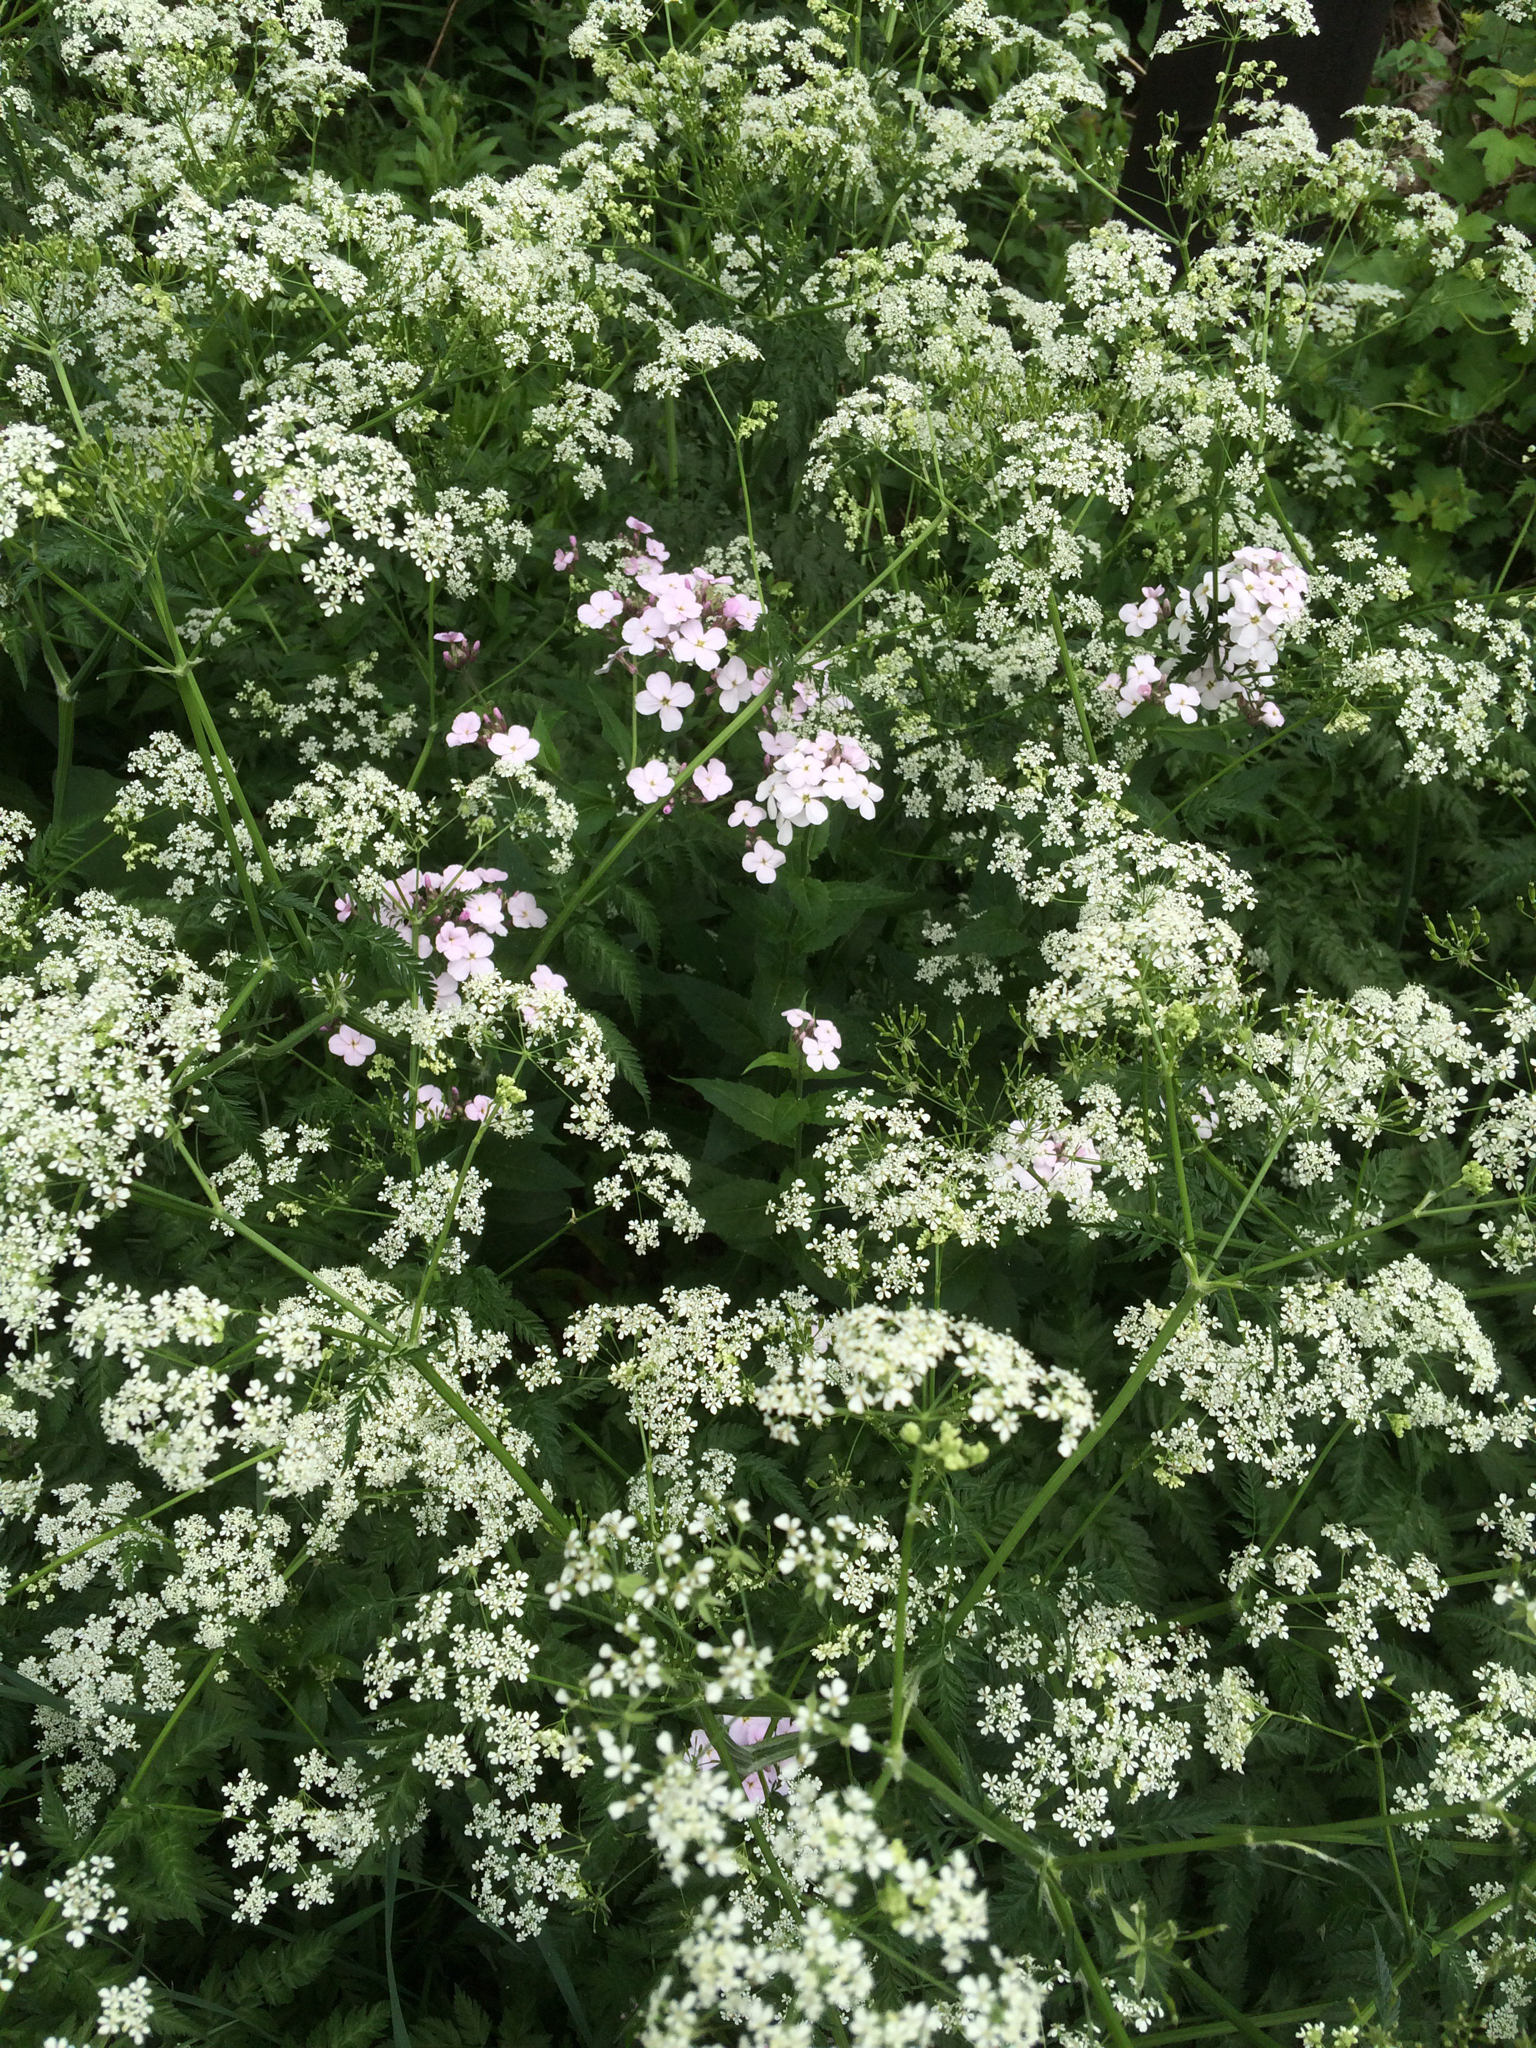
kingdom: Plantae
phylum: Tracheophyta
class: Magnoliopsida
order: Apiales
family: Apiaceae
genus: Anthriscus
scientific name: Anthriscus sylvestris
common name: Cow parsley
